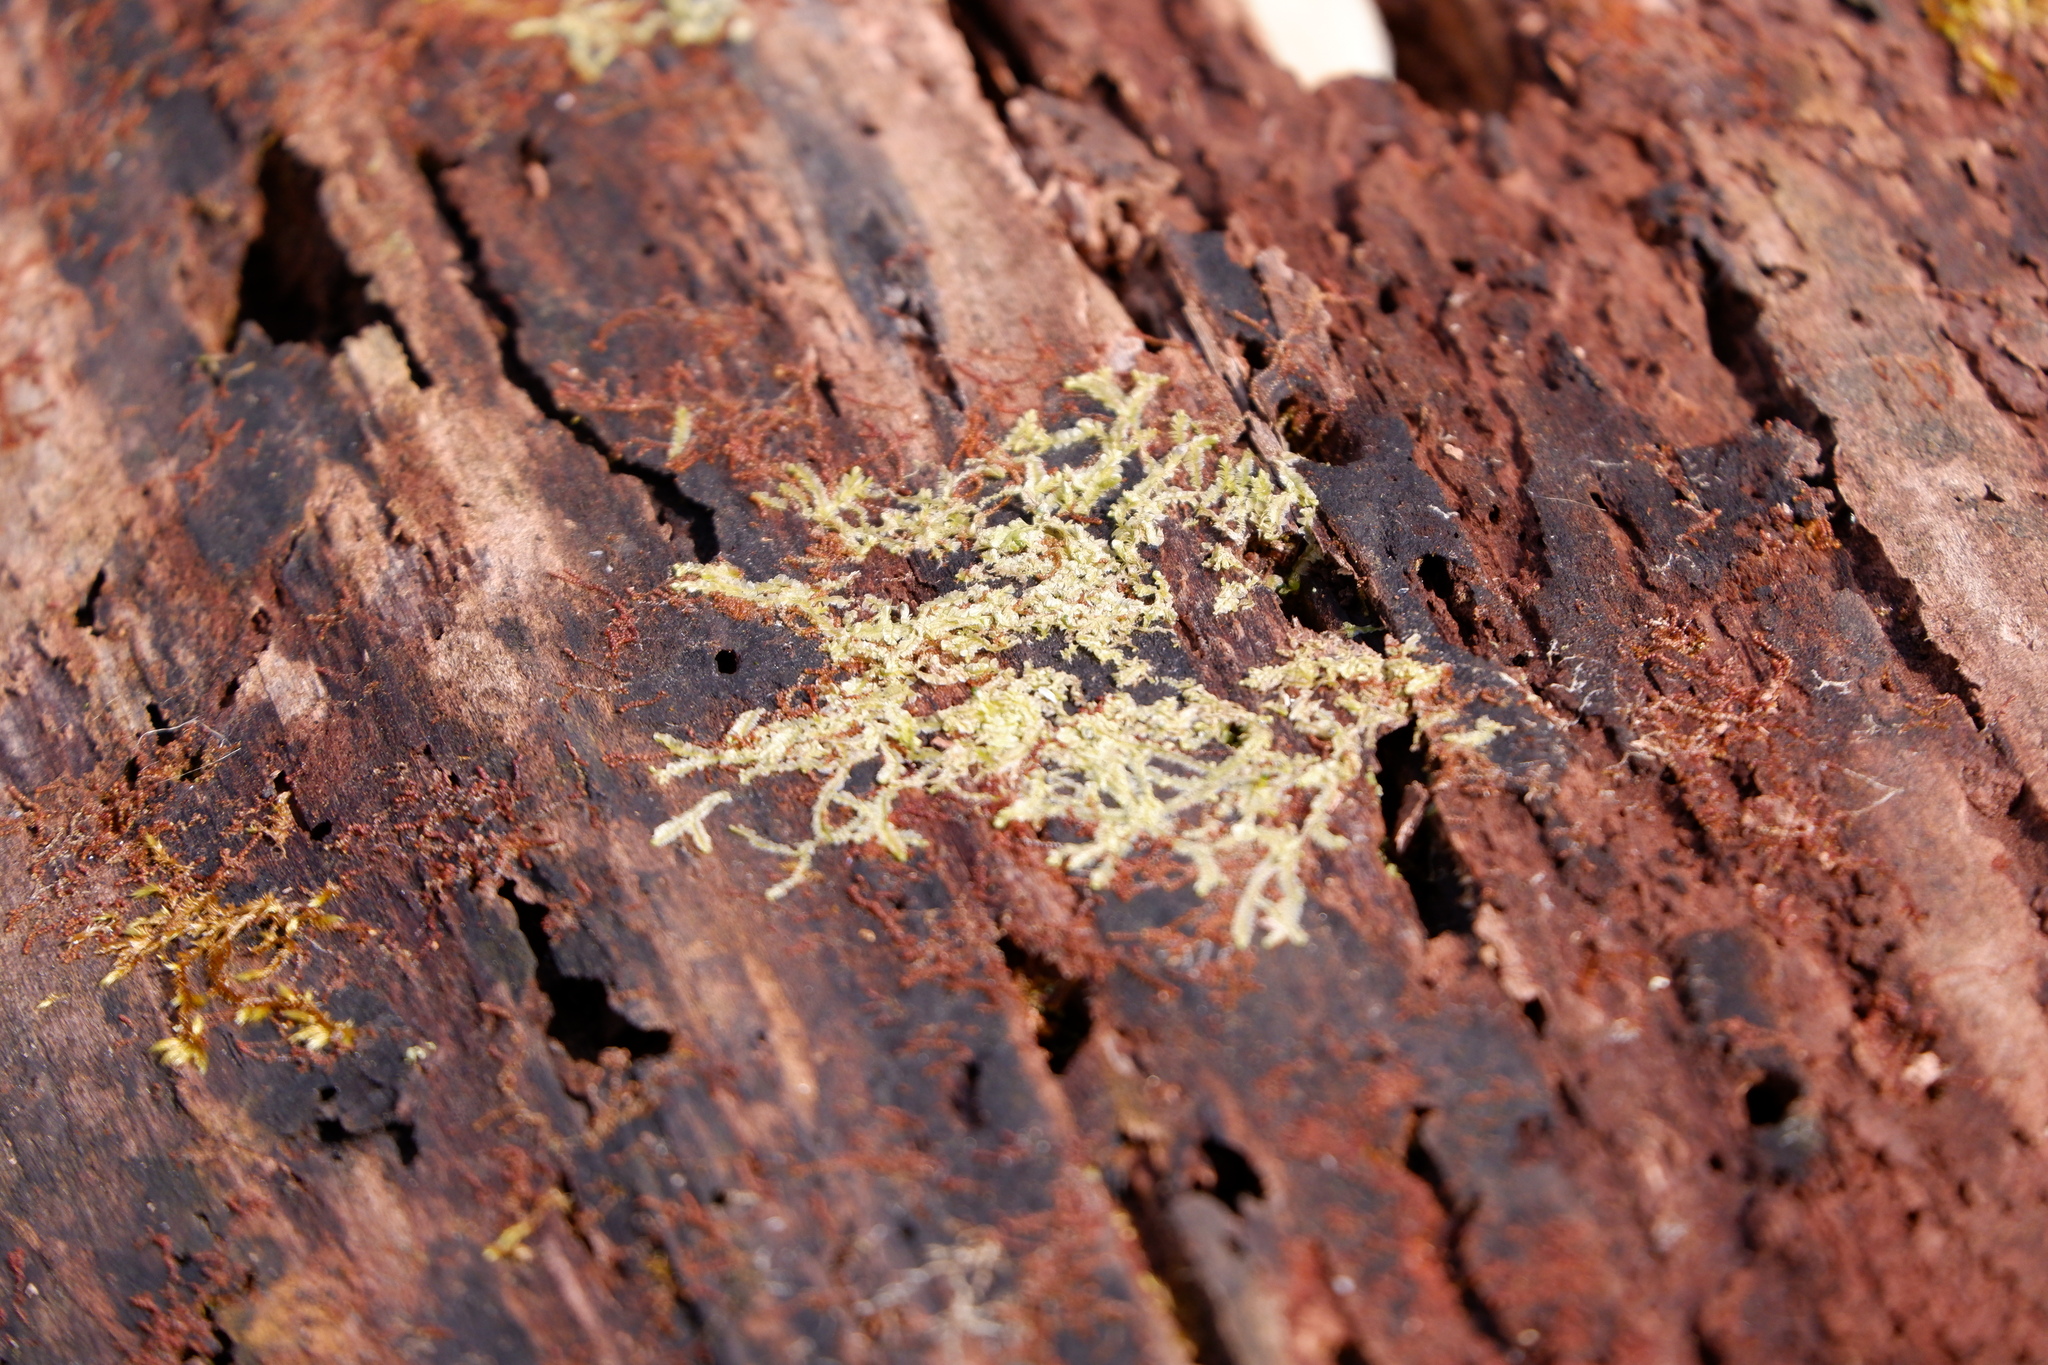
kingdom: Plantae
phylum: Marchantiophyta
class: Jungermanniopsida
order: Jungermanniales
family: Lophocoleaceae
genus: Lophocolea
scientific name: Lophocolea heterophylla
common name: Variable-leaved crestwort
